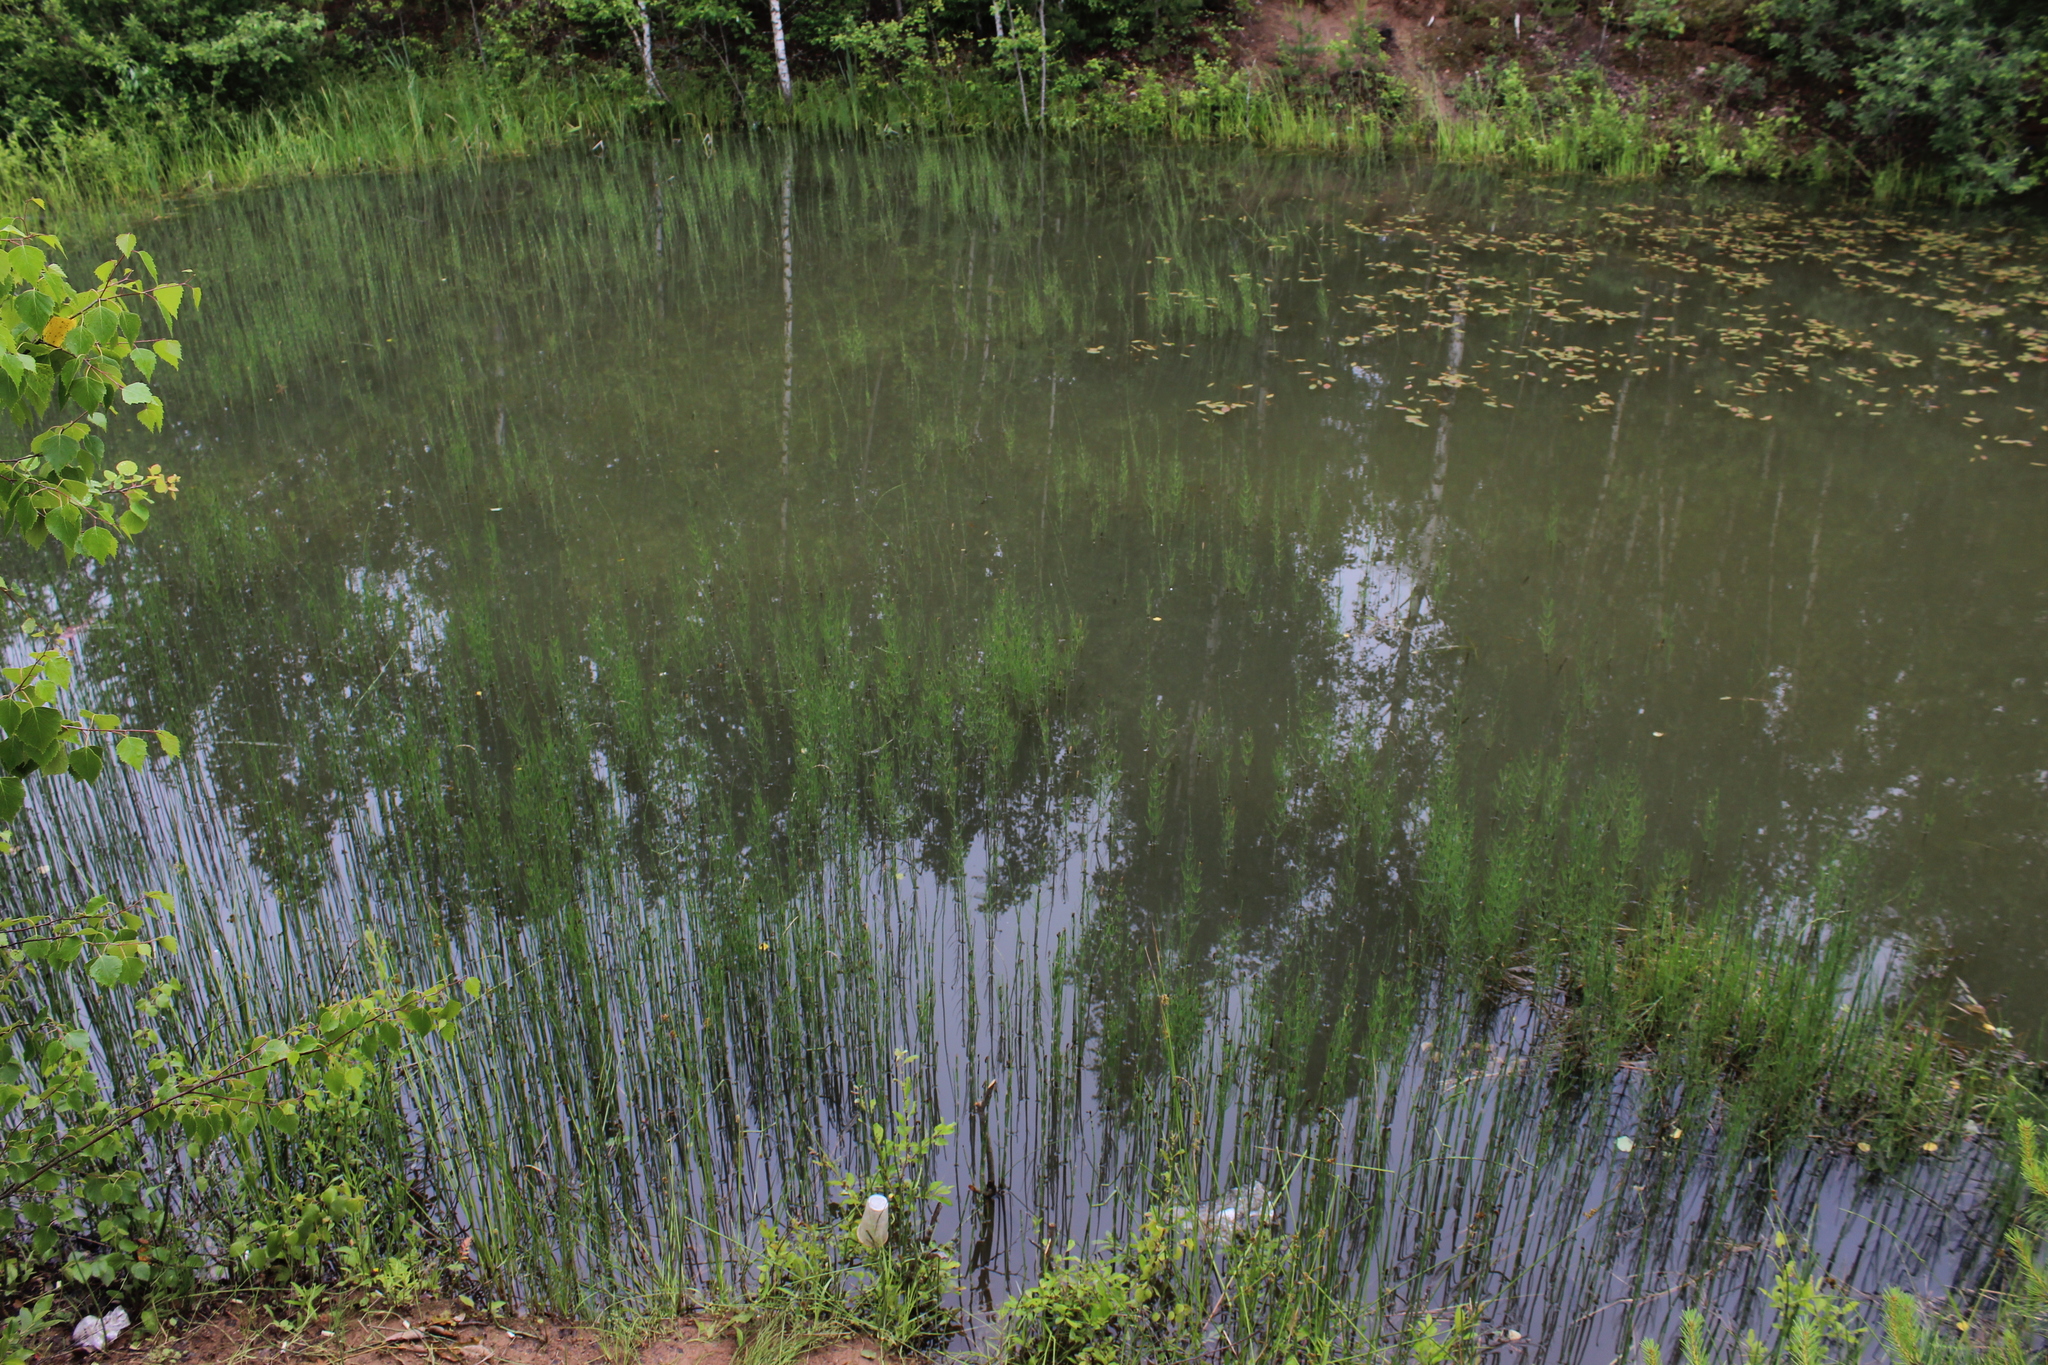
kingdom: Plantae
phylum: Tracheophyta
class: Polypodiopsida
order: Equisetales
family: Equisetaceae
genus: Equisetum
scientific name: Equisetum fluviatile
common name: Water horsetail
